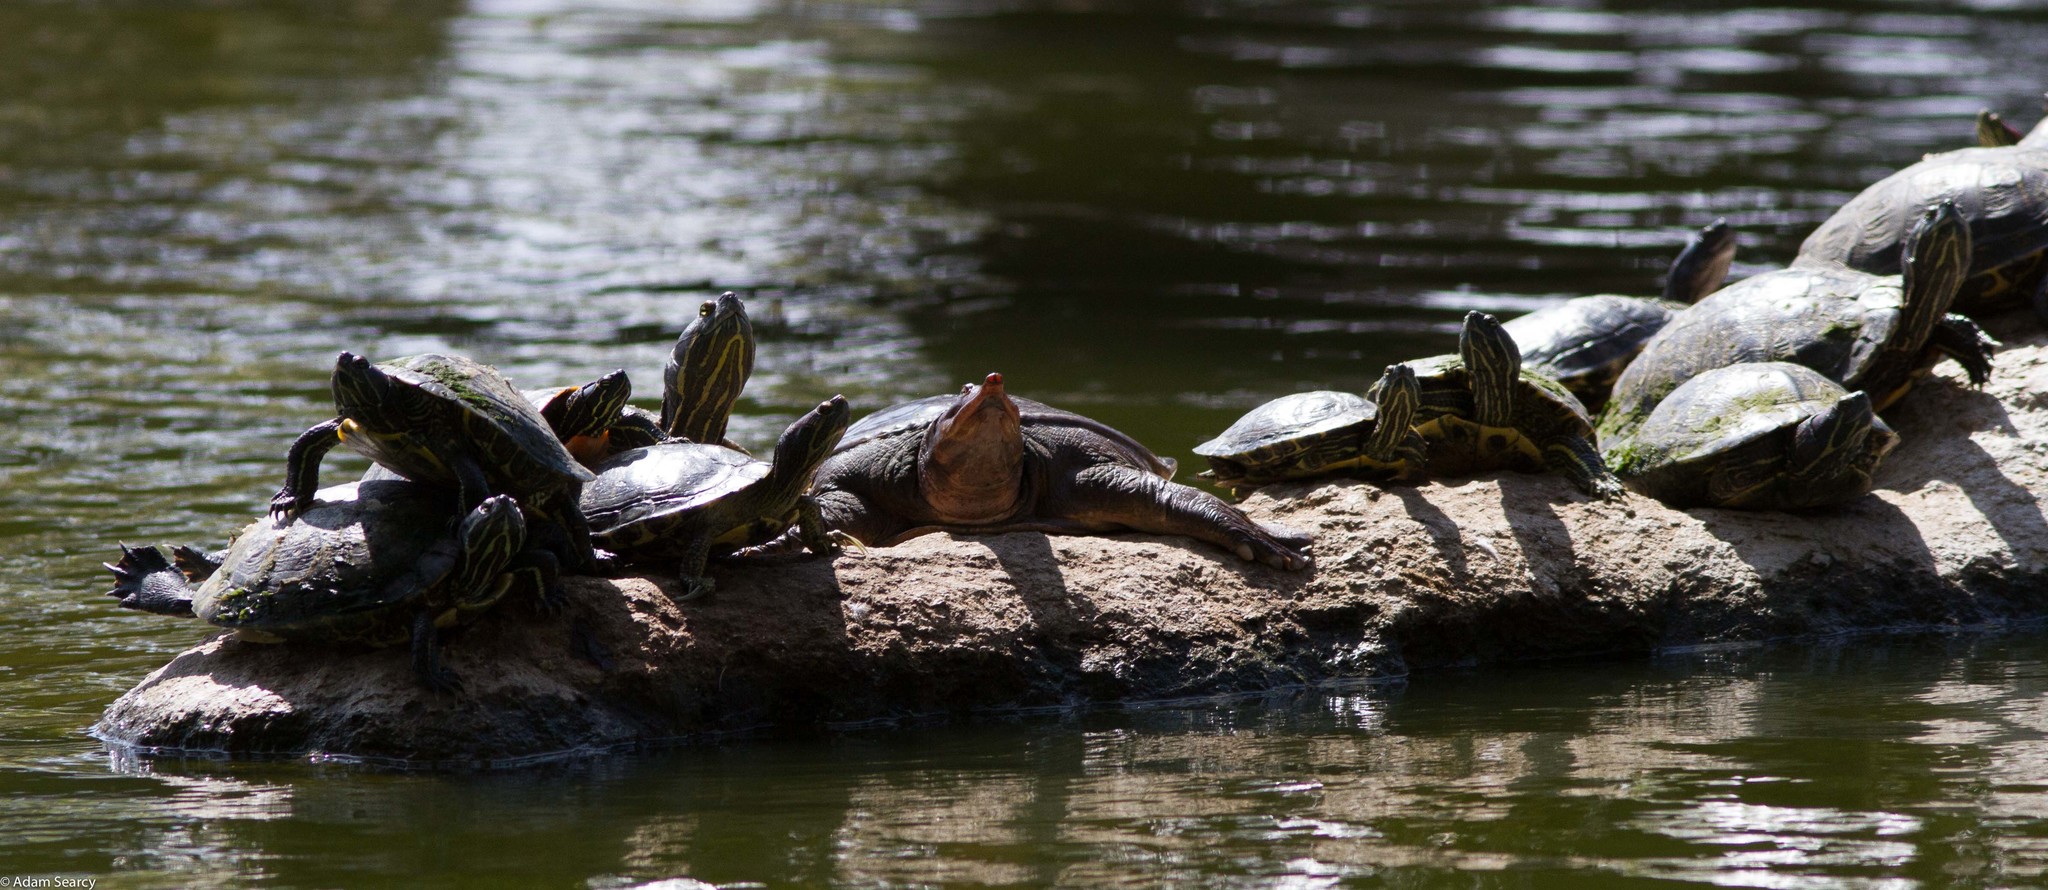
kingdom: Animalia
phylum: Chordata
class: Testudines
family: Trionychidae
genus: Apalone
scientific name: Apalone ferox
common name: Florida softshell turtle
